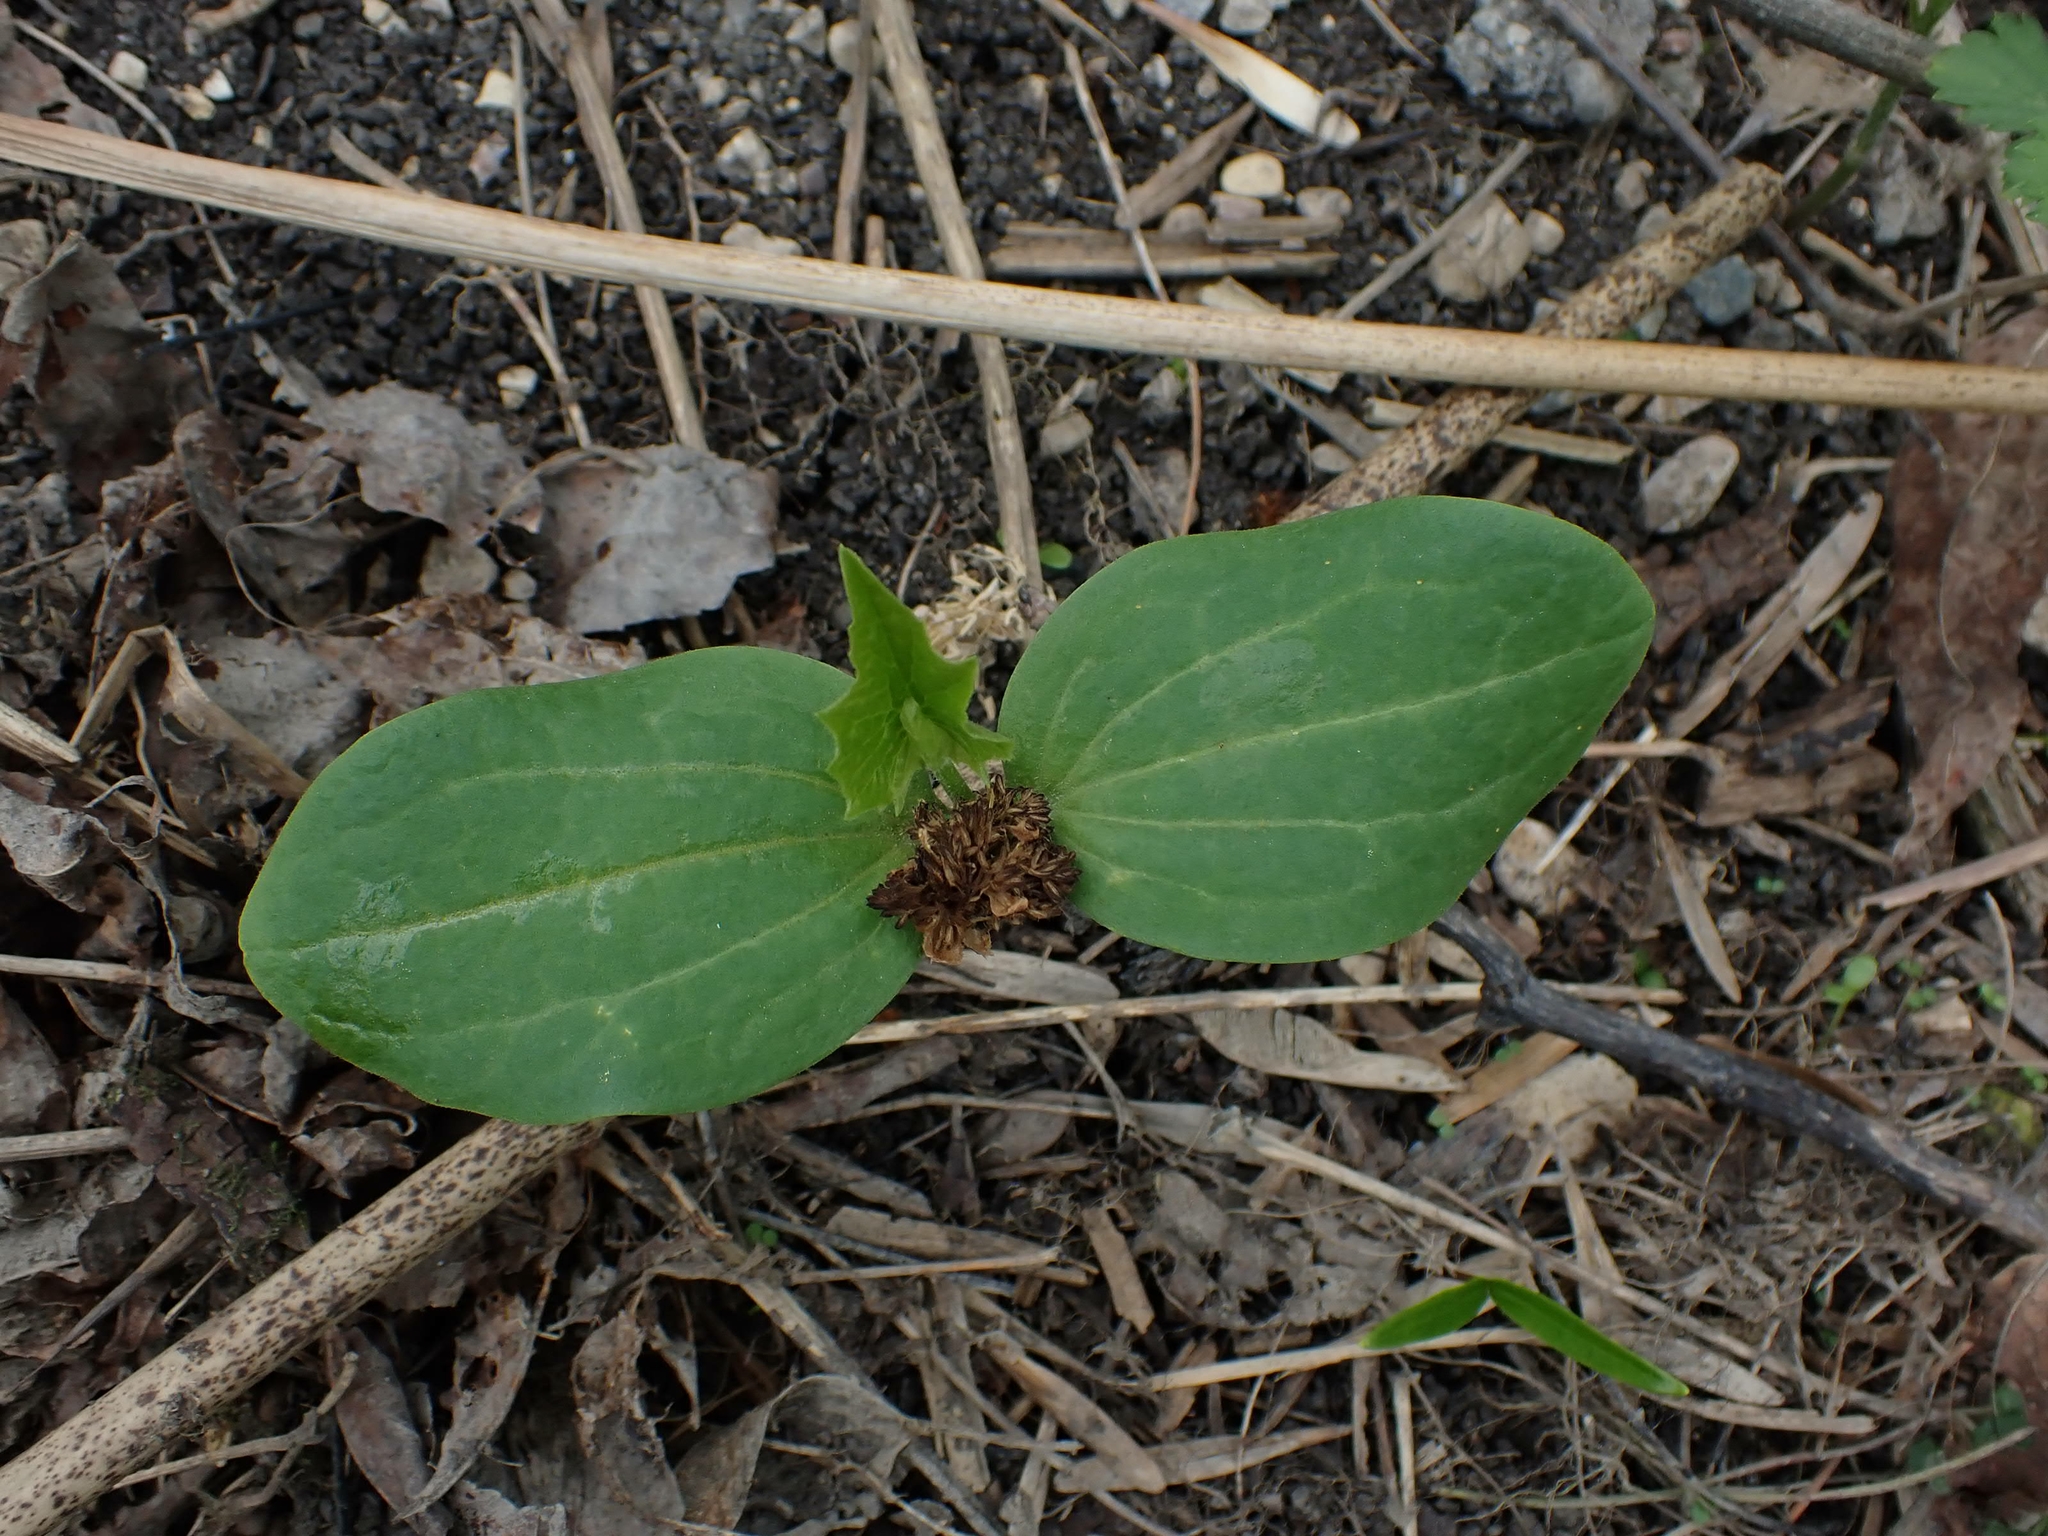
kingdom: Plantae
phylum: Tracheophyta
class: Magnoliopsida
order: Cucurbitales
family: Cucurbitaceae
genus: Echinocystis
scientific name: Echinocystis lobata
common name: Wild cucumber
